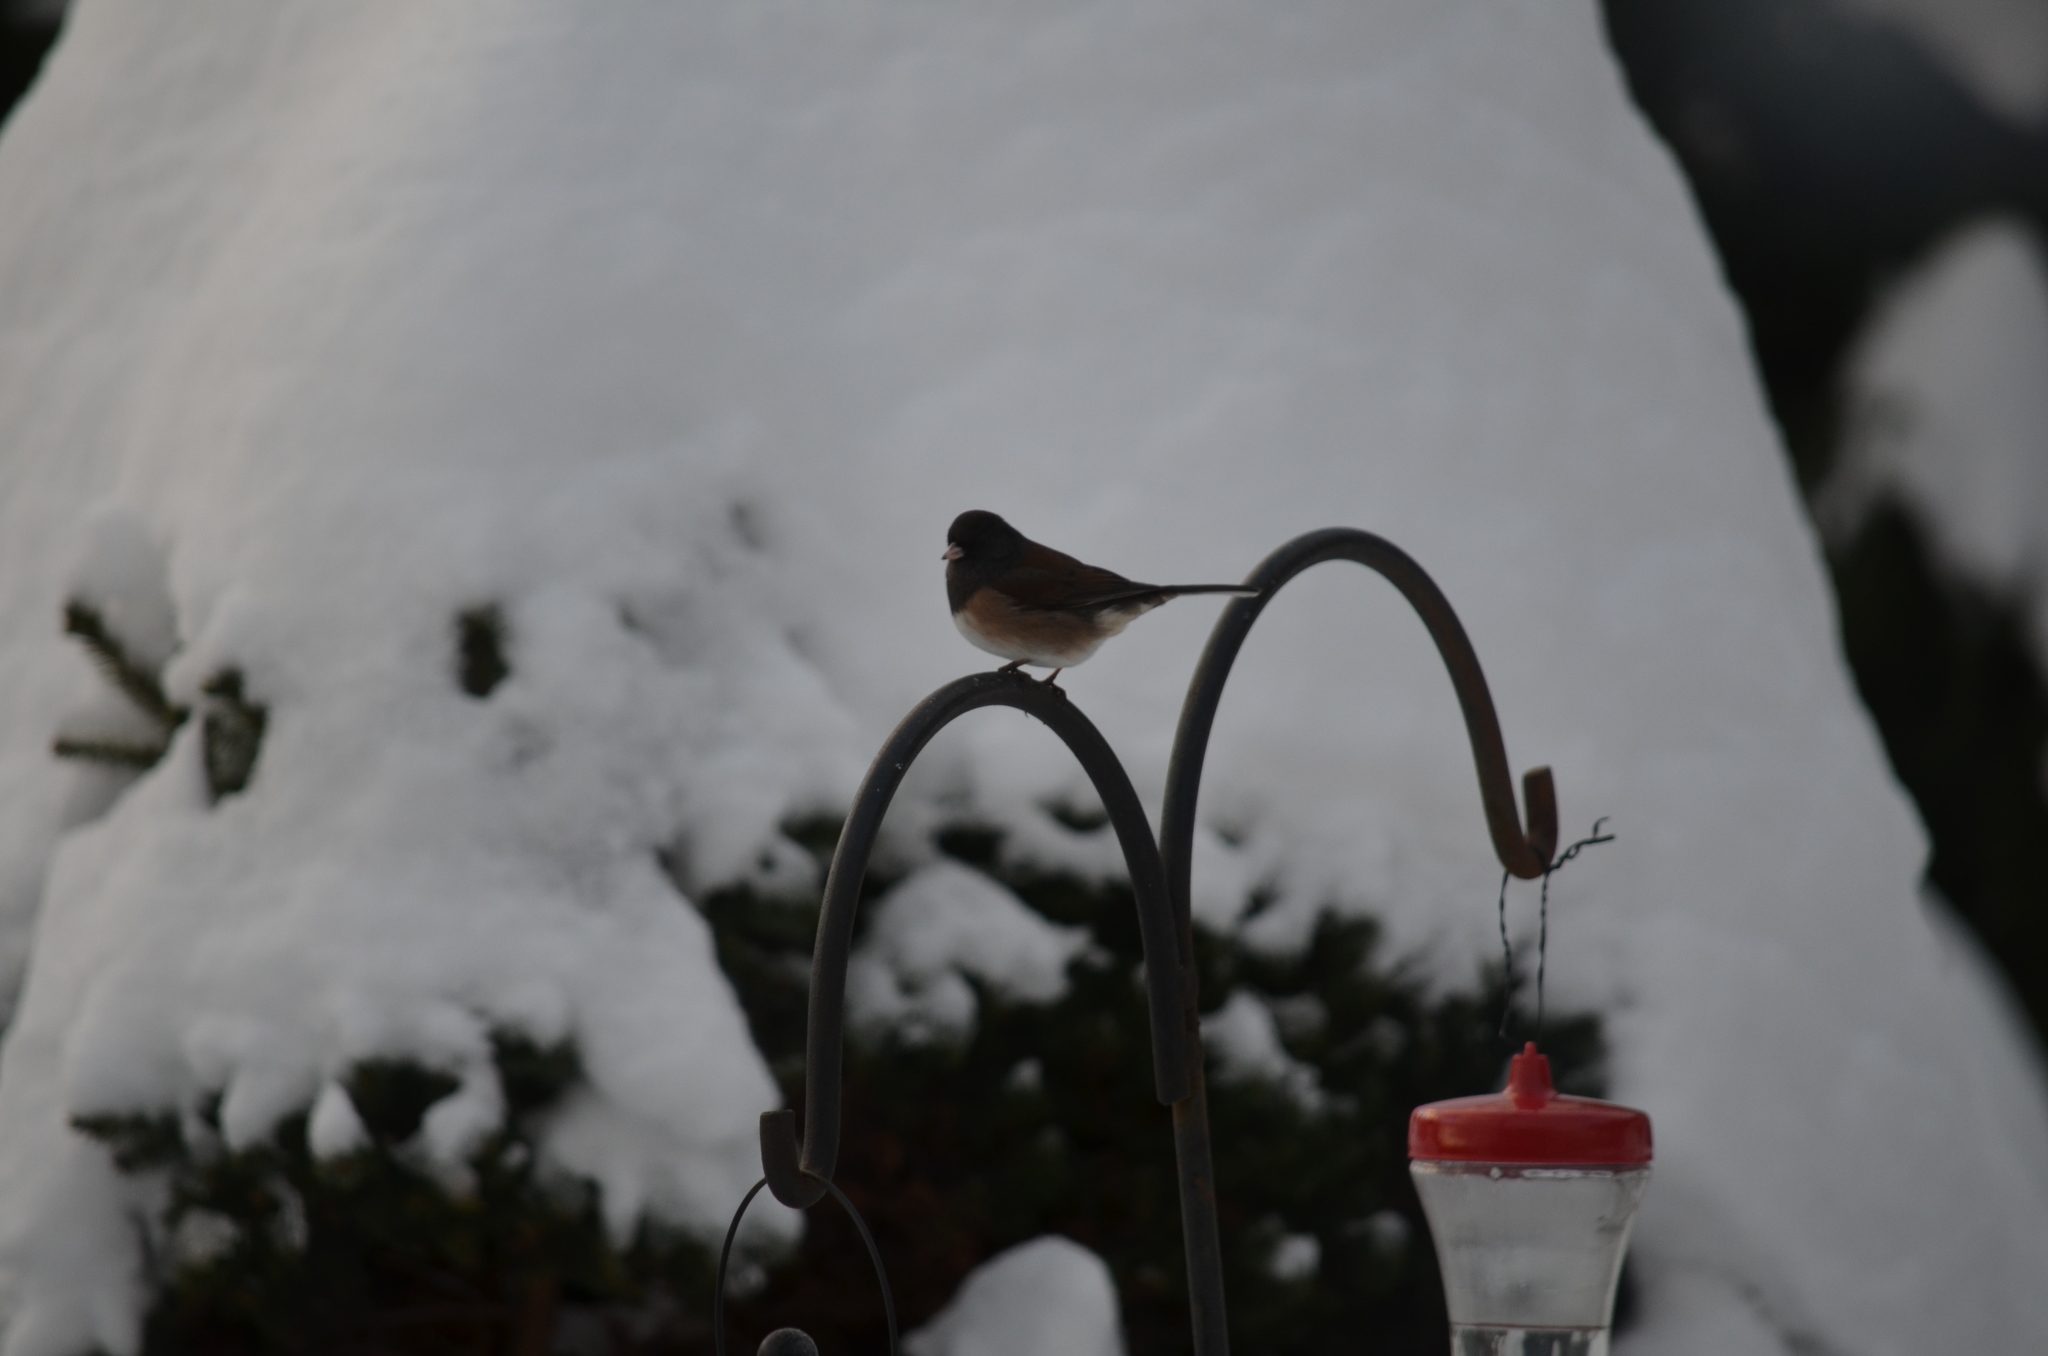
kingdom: Animalia
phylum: Chordata
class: Aves
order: Passeriformes
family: Passerellidae
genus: Junco
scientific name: Junco hyemalis
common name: Dark-eyed junco
